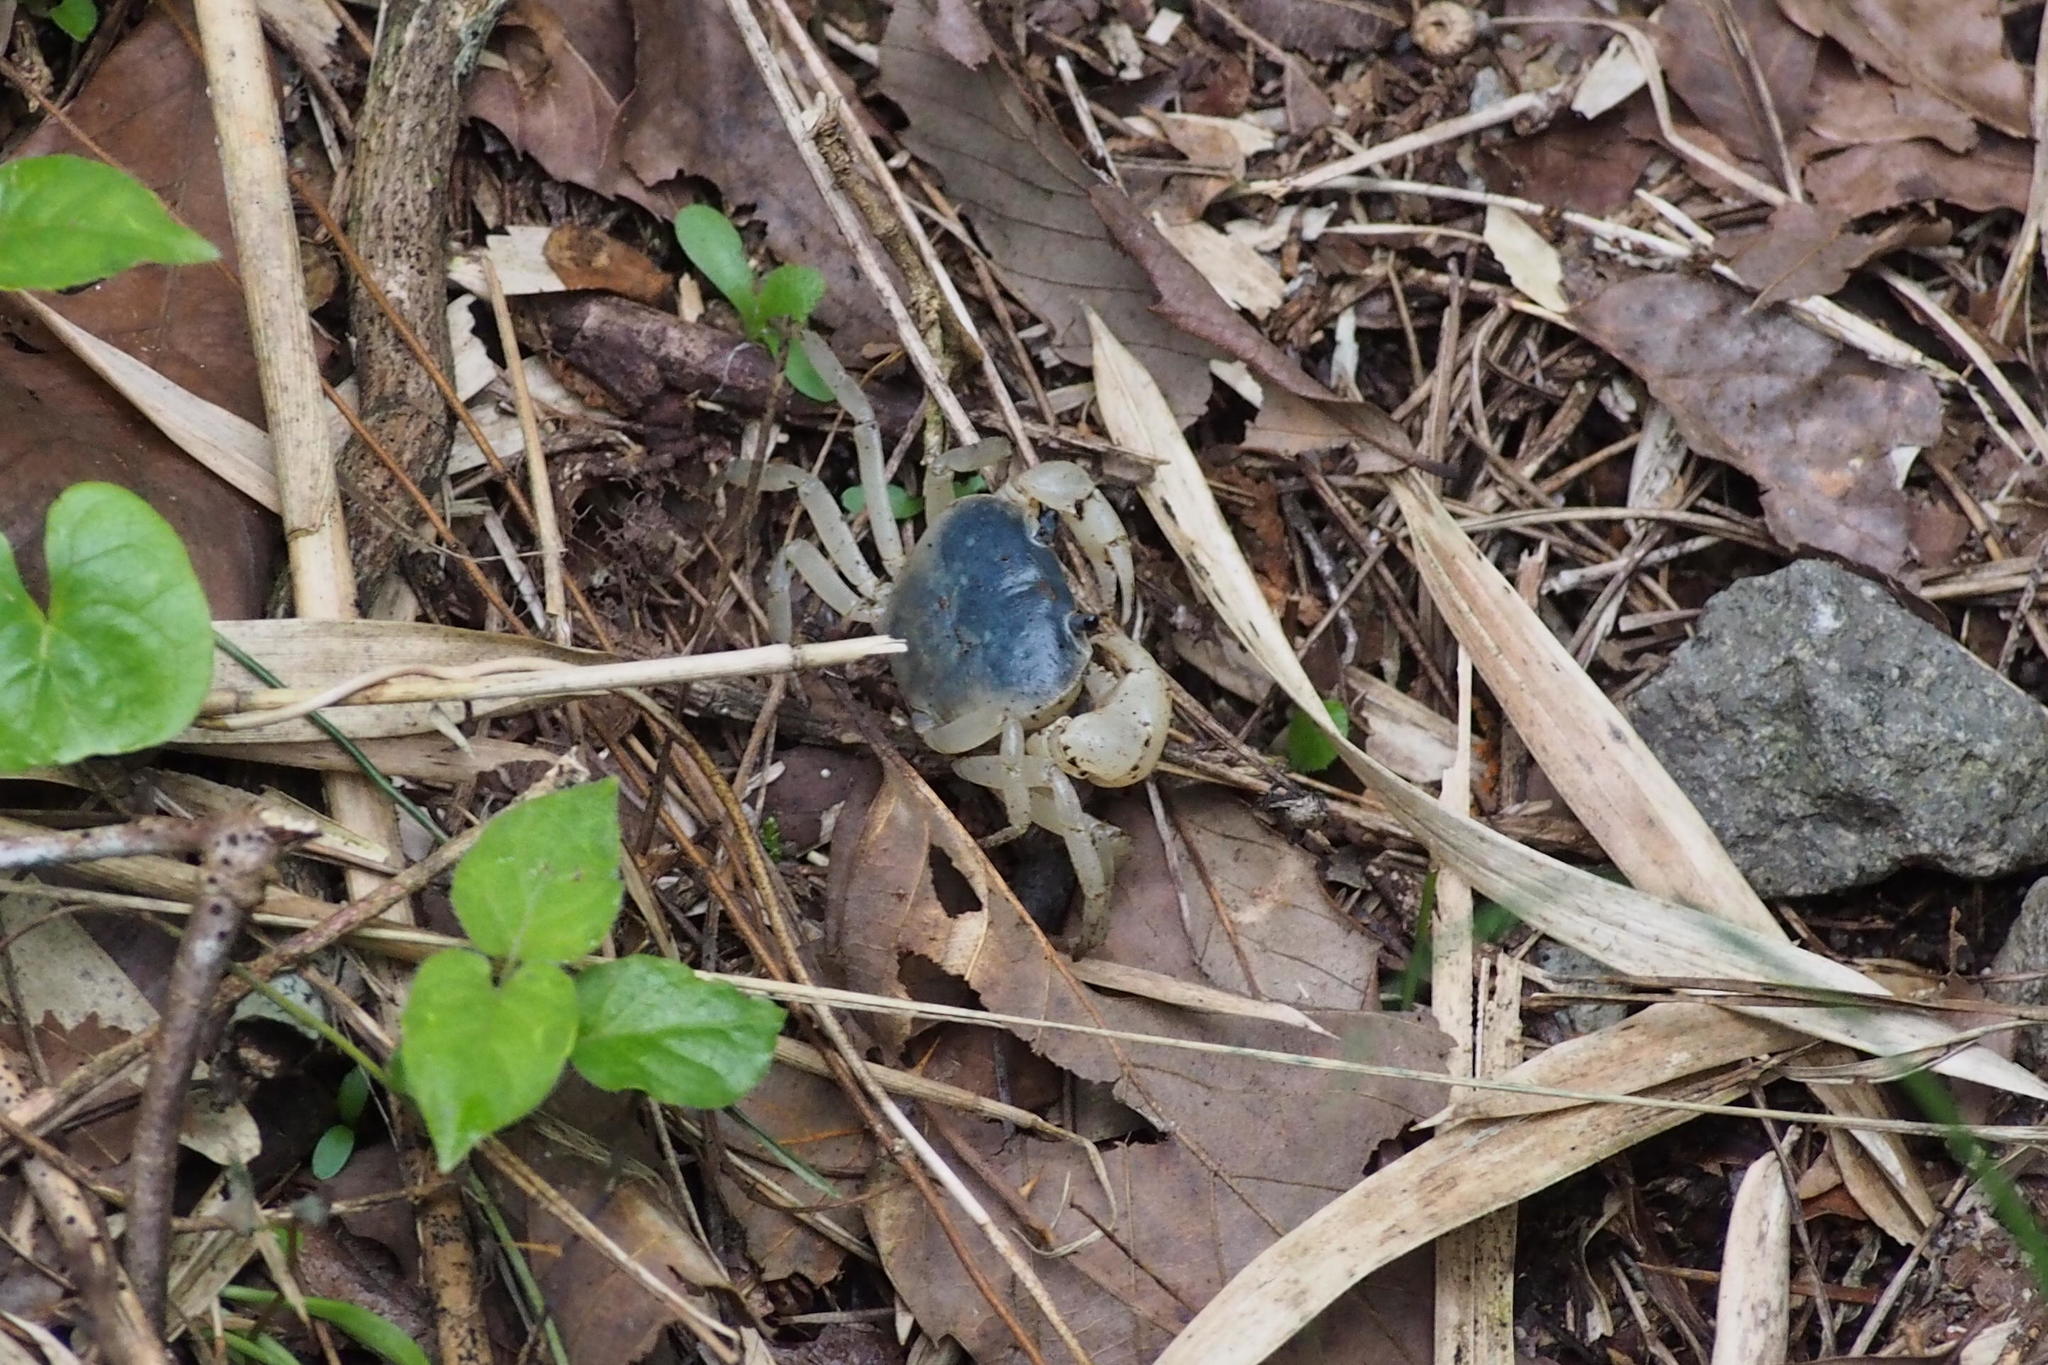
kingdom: Animalia
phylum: Arthropoda
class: Malacostraca
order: Decapoda
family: Potamidae
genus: Geothelphusa
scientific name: Geothelphusa dehaani
